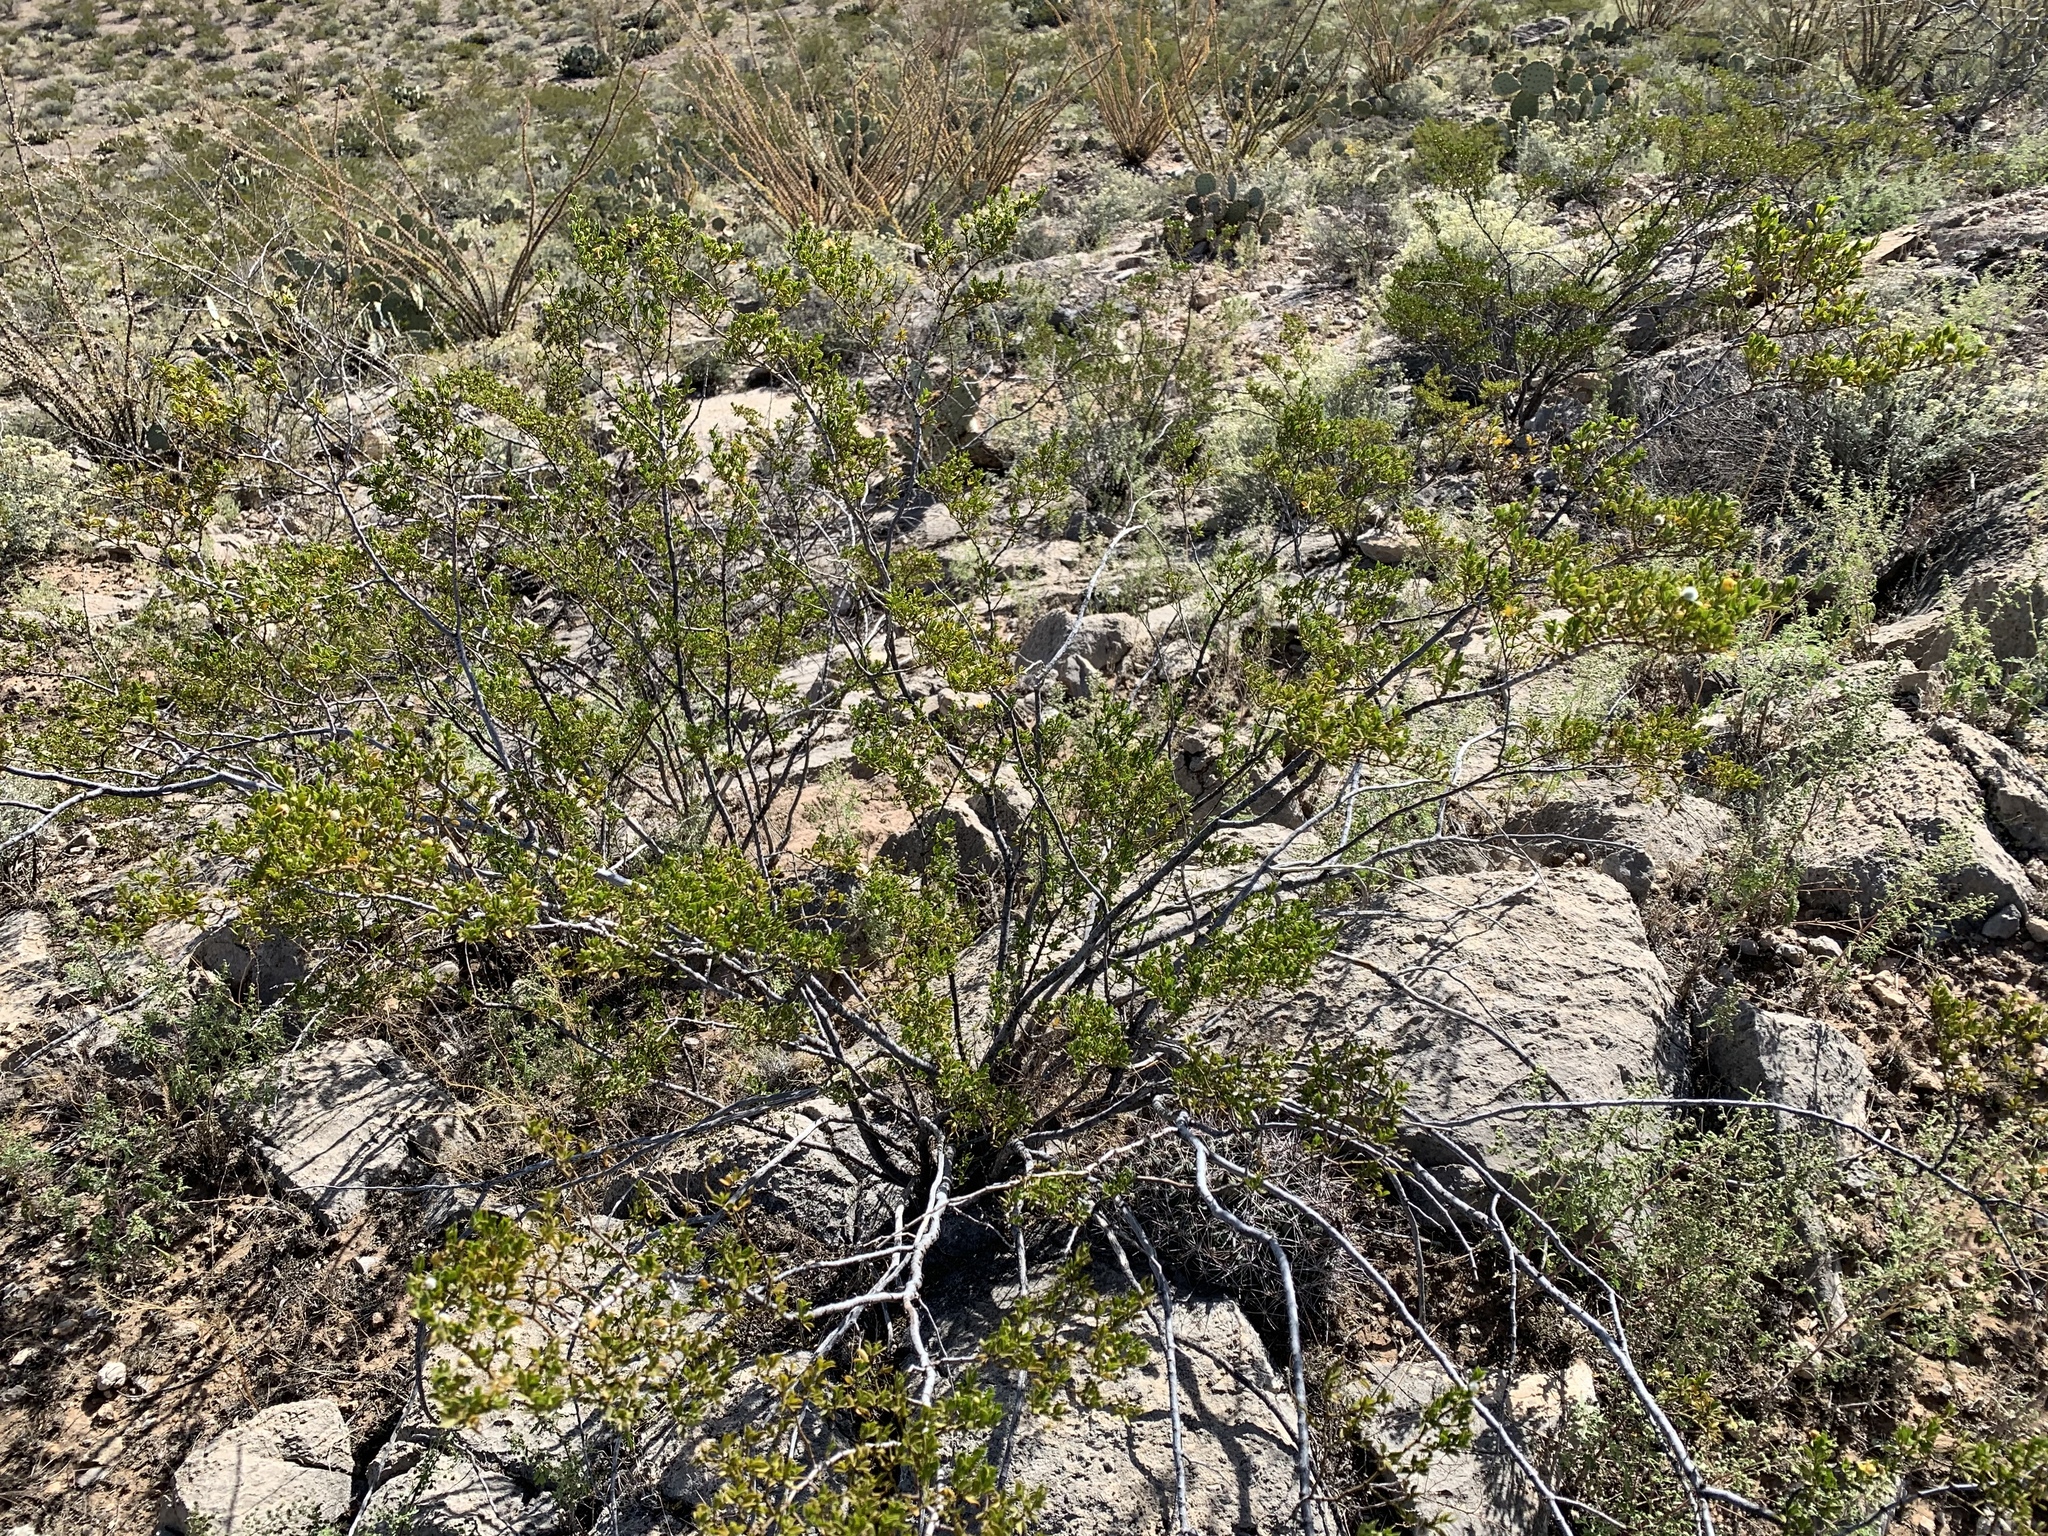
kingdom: Plantae
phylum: Tracheophyta
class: Magnoliopsida
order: Zygophyllales
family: Zygophyllaceae
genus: Larrea
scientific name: Larrea tridentata
